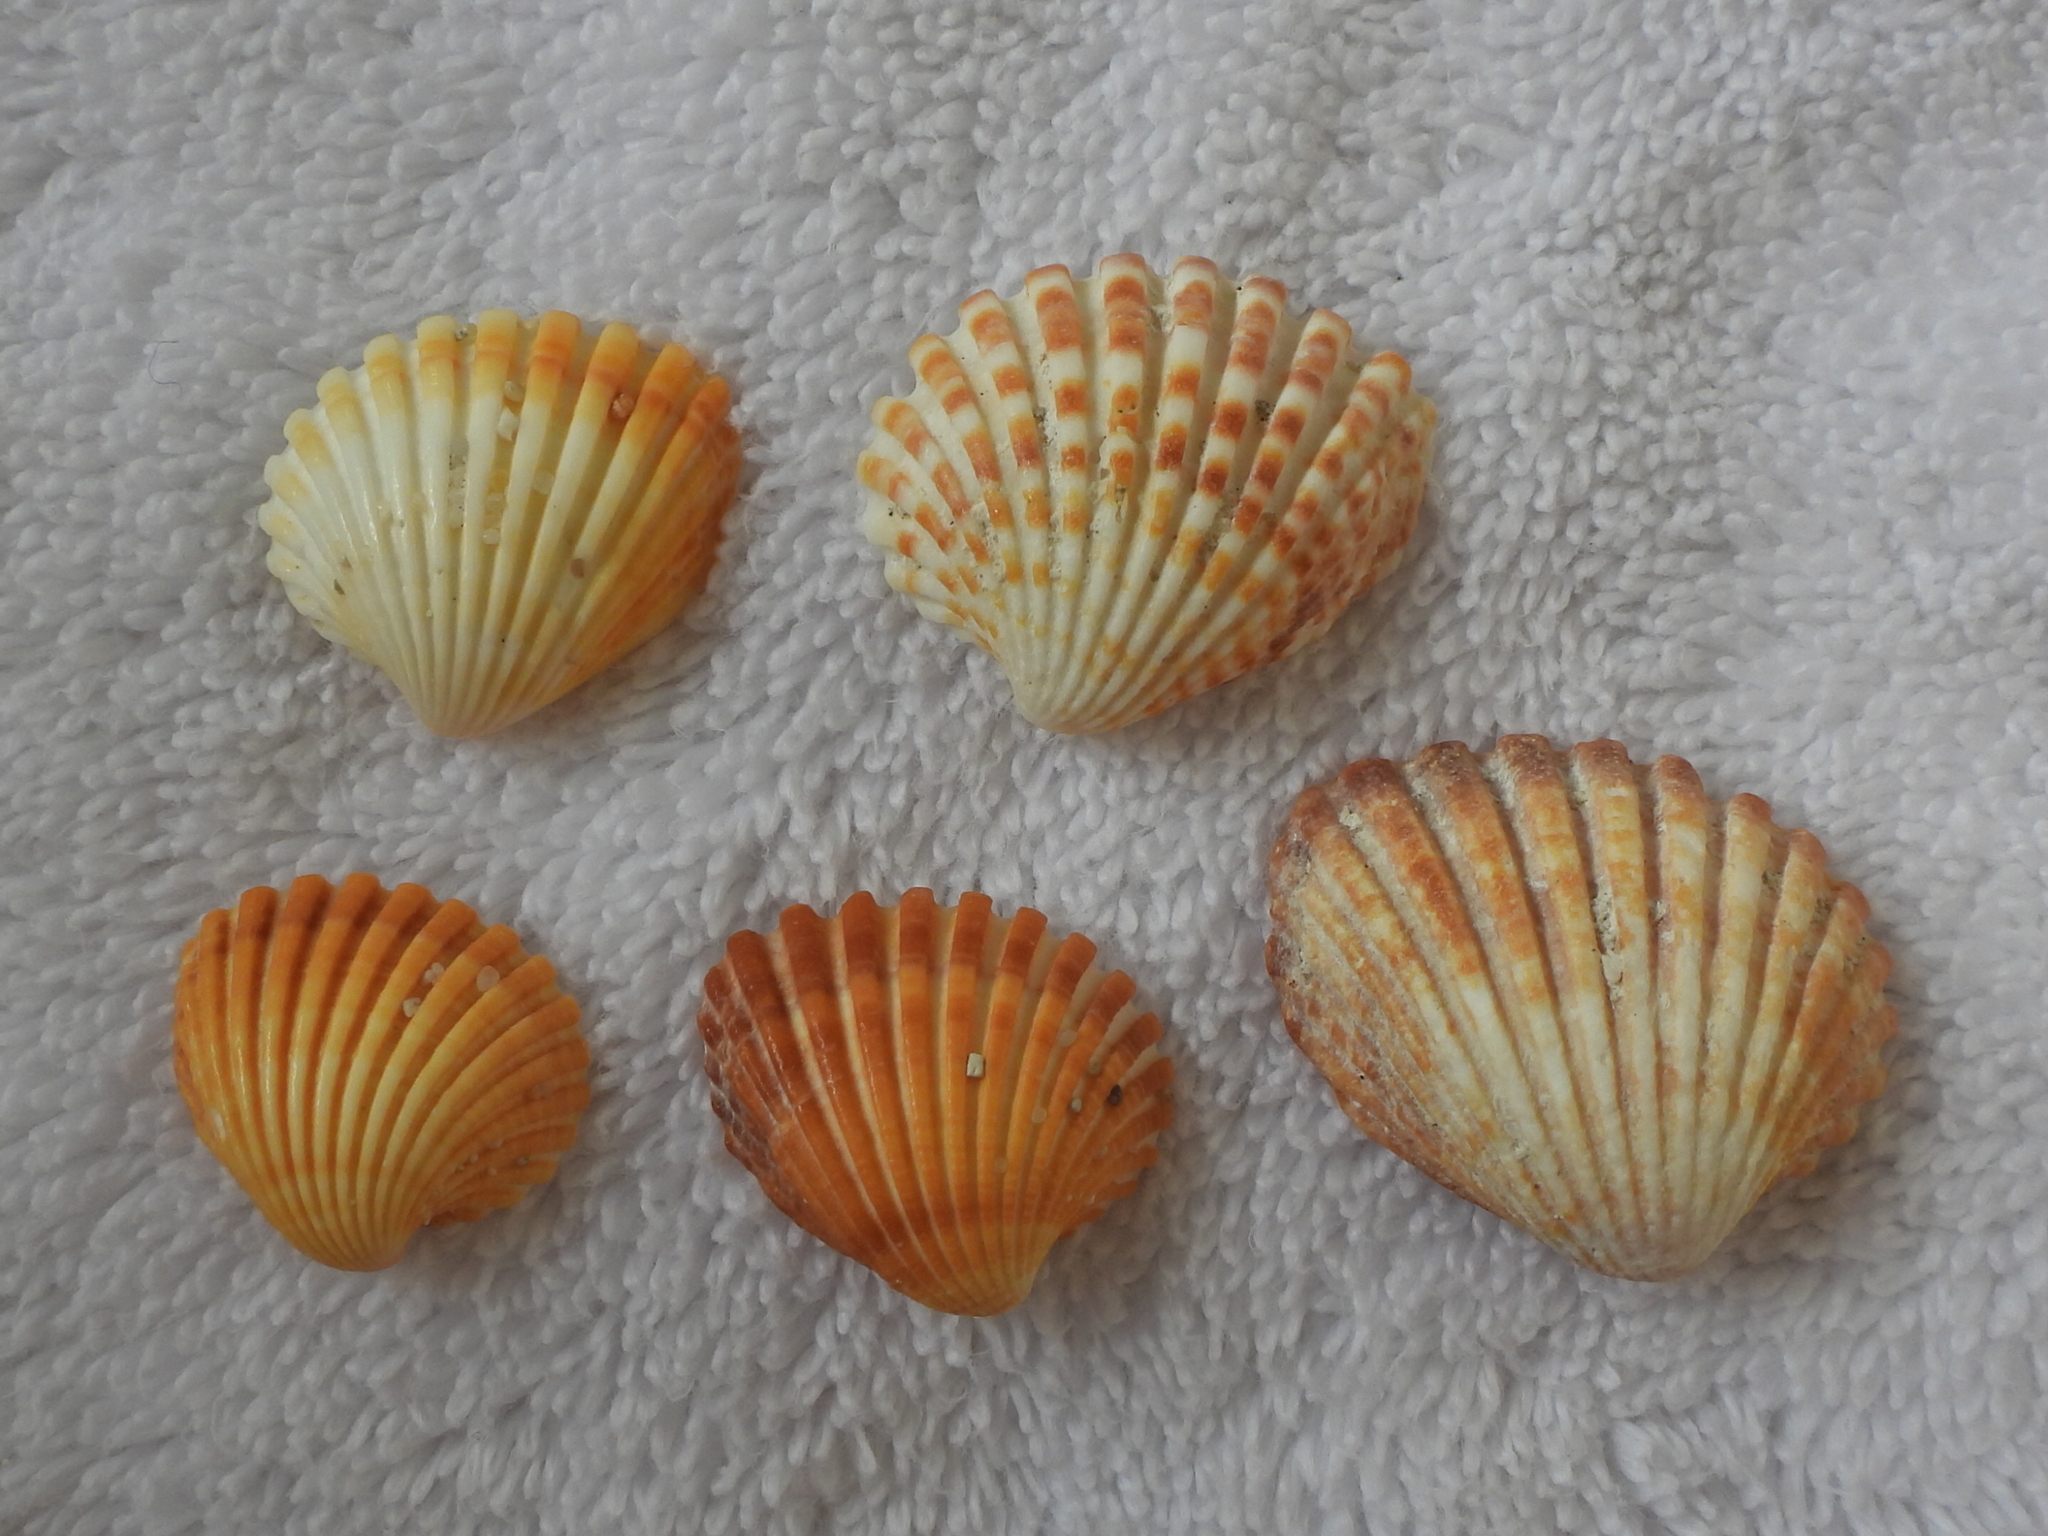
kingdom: Animalia
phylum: Mollusca
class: Bivalvia
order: Carditida
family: Carditidae
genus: Cardites
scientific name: Cardites bicolor
